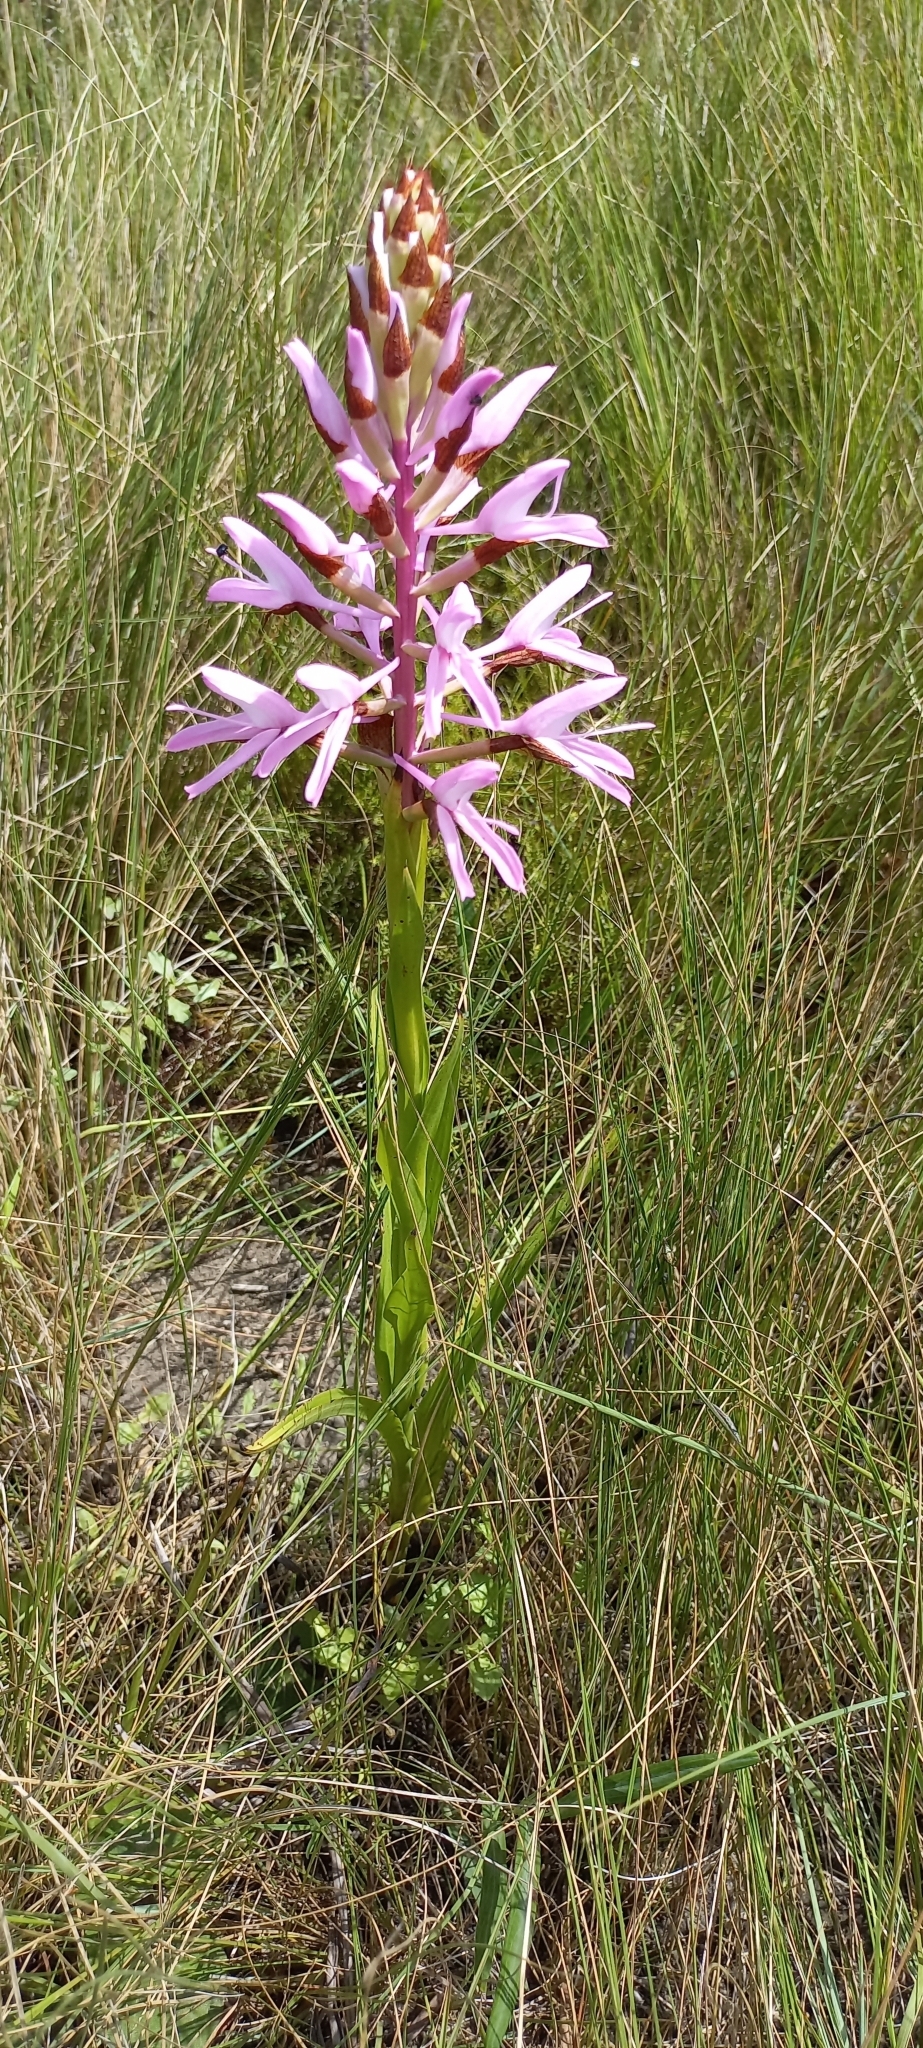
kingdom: Plantae
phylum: Tracheophyta
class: Liliopsida
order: Asparagales
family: Orchidaceae
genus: Disa
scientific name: Disa nervosa
